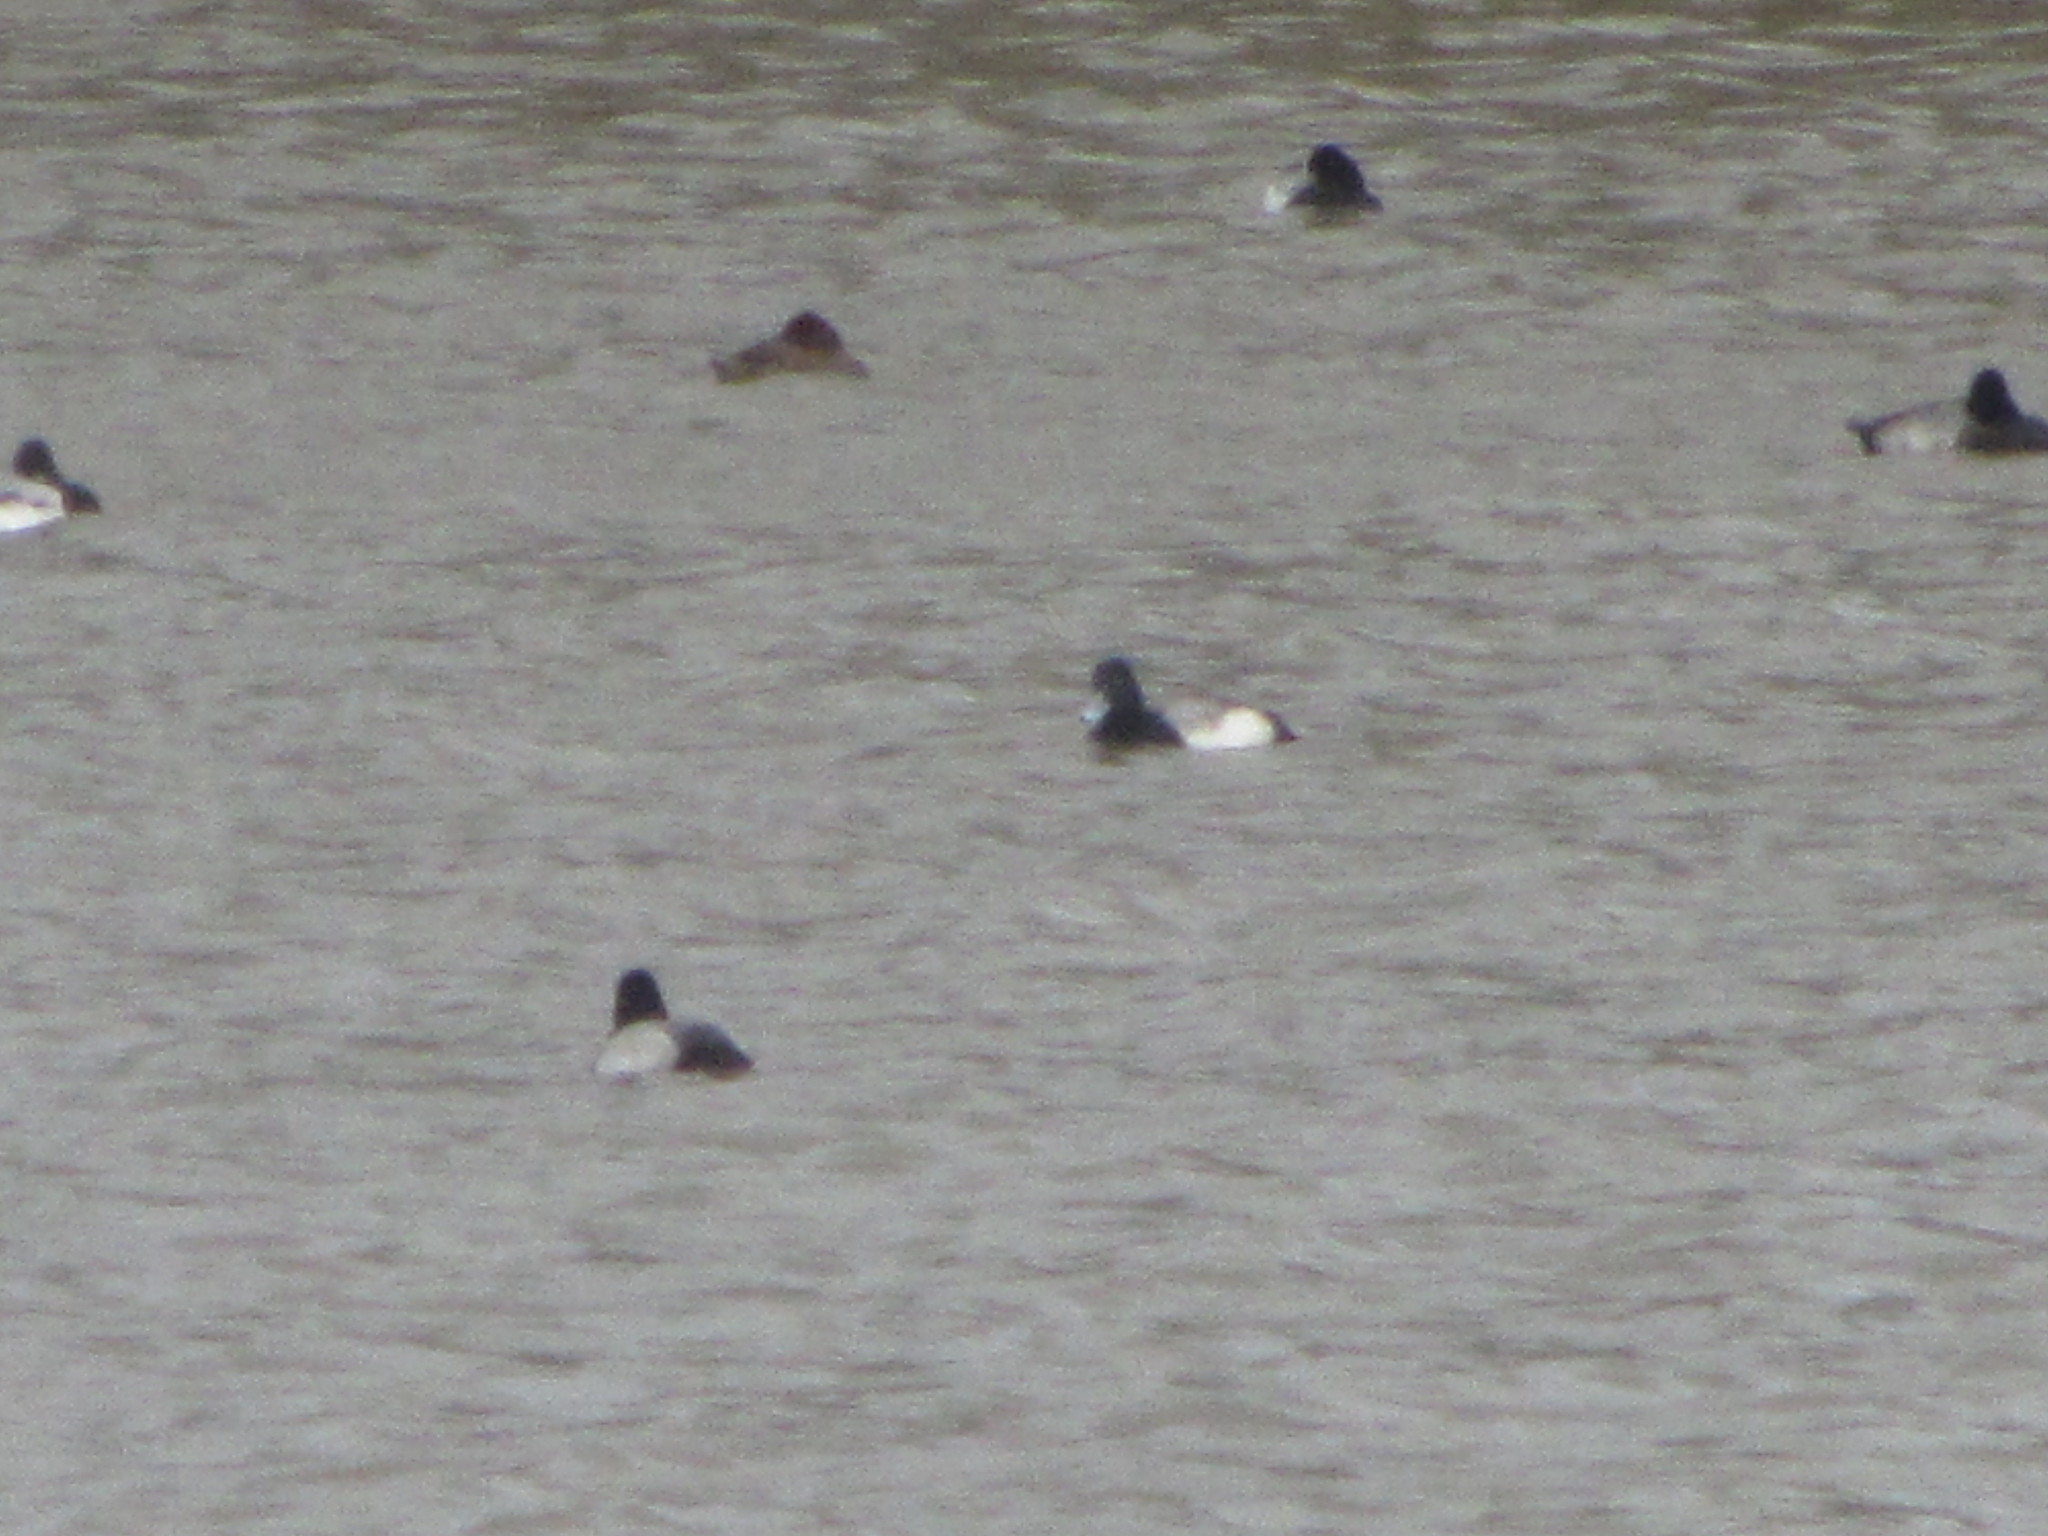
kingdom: Animalia
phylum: Chordata
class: Aves
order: Anseriformes
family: Anatidae
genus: Aythya
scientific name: Aythya affinis
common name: Lesser scaup
